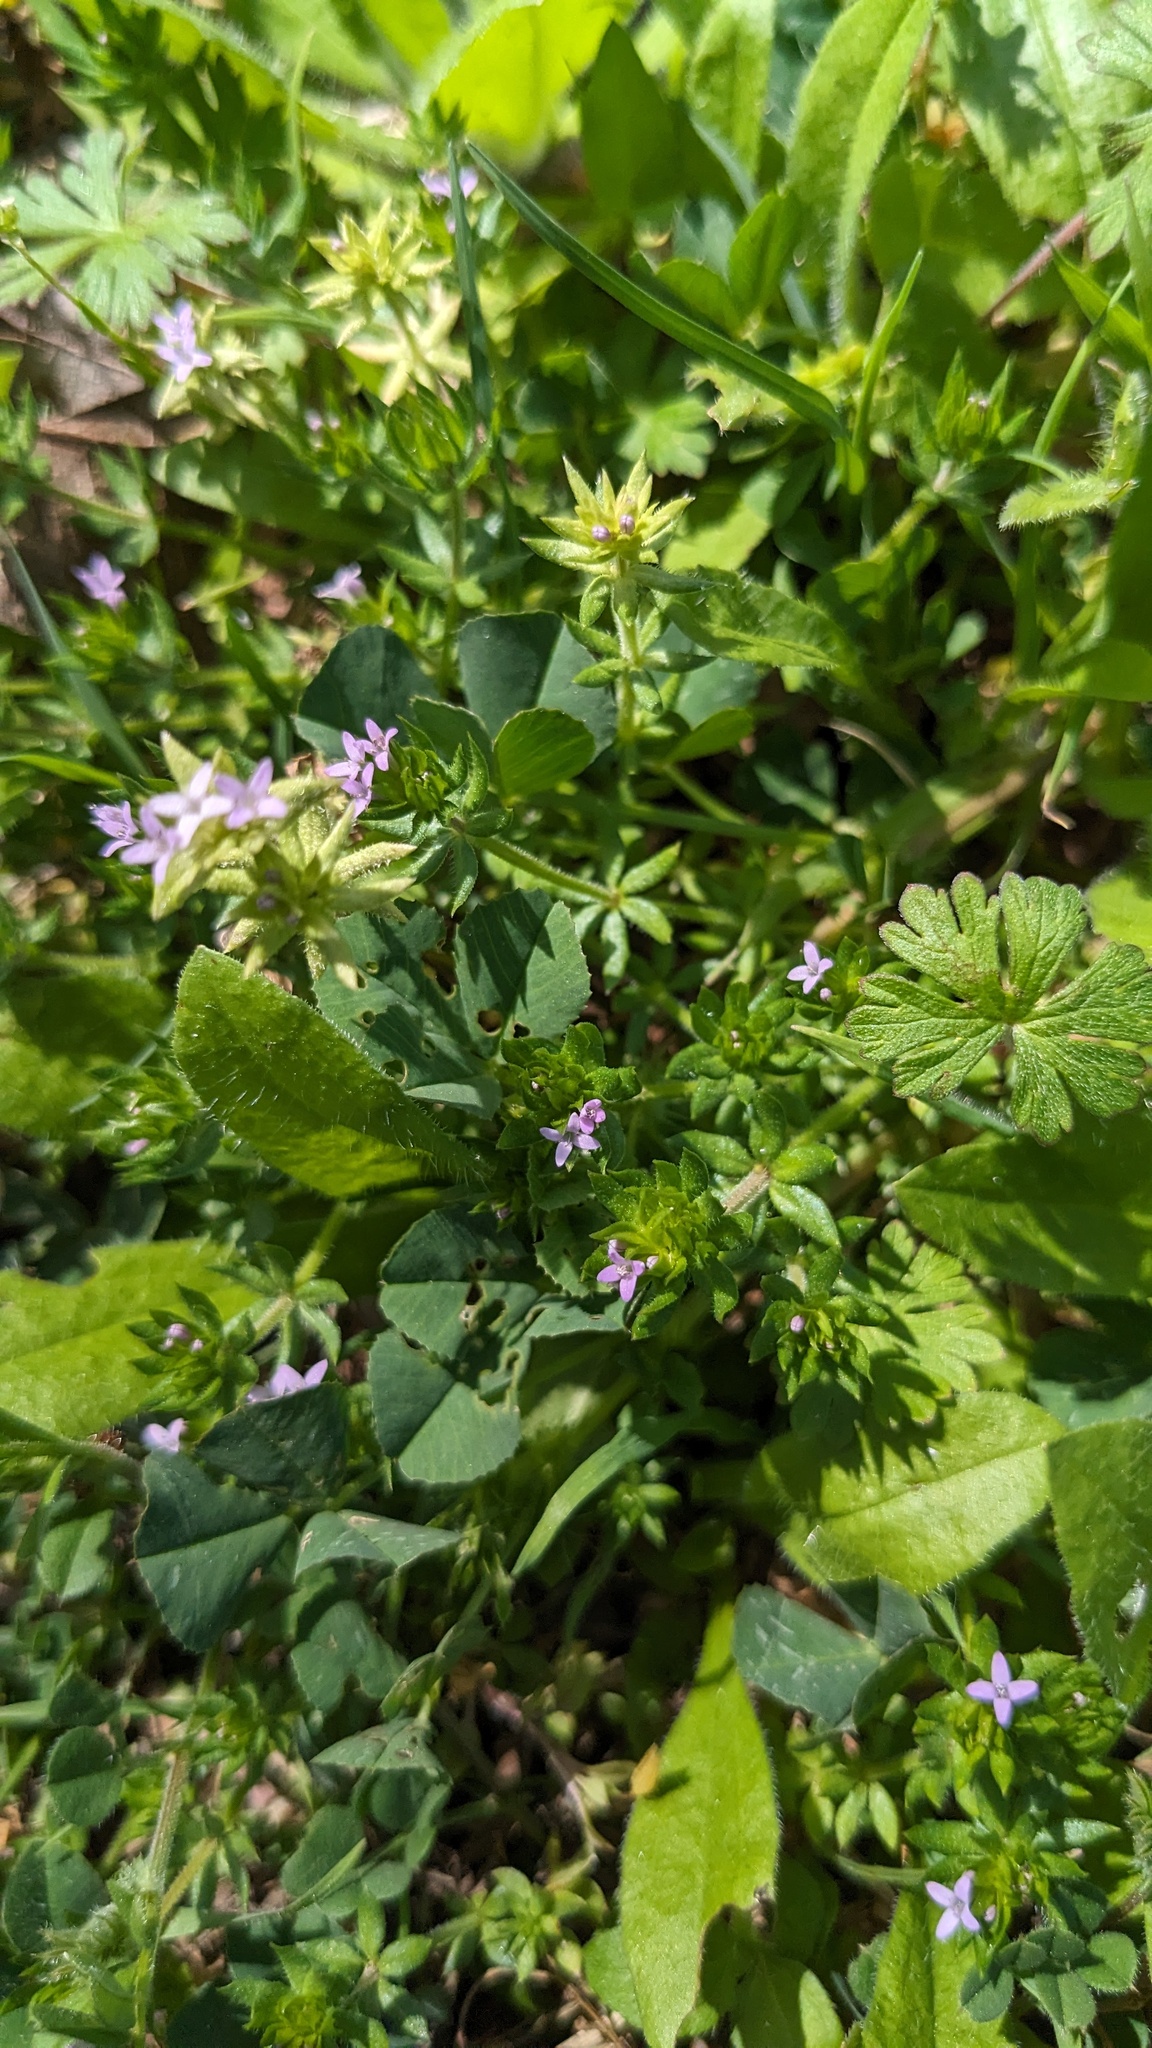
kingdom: Plantae
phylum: Tracheophyta
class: Magnoliopsida
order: Gentianales
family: Rubiaceae
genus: Sherardia
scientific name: Sherardia arvensis
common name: Field madder
